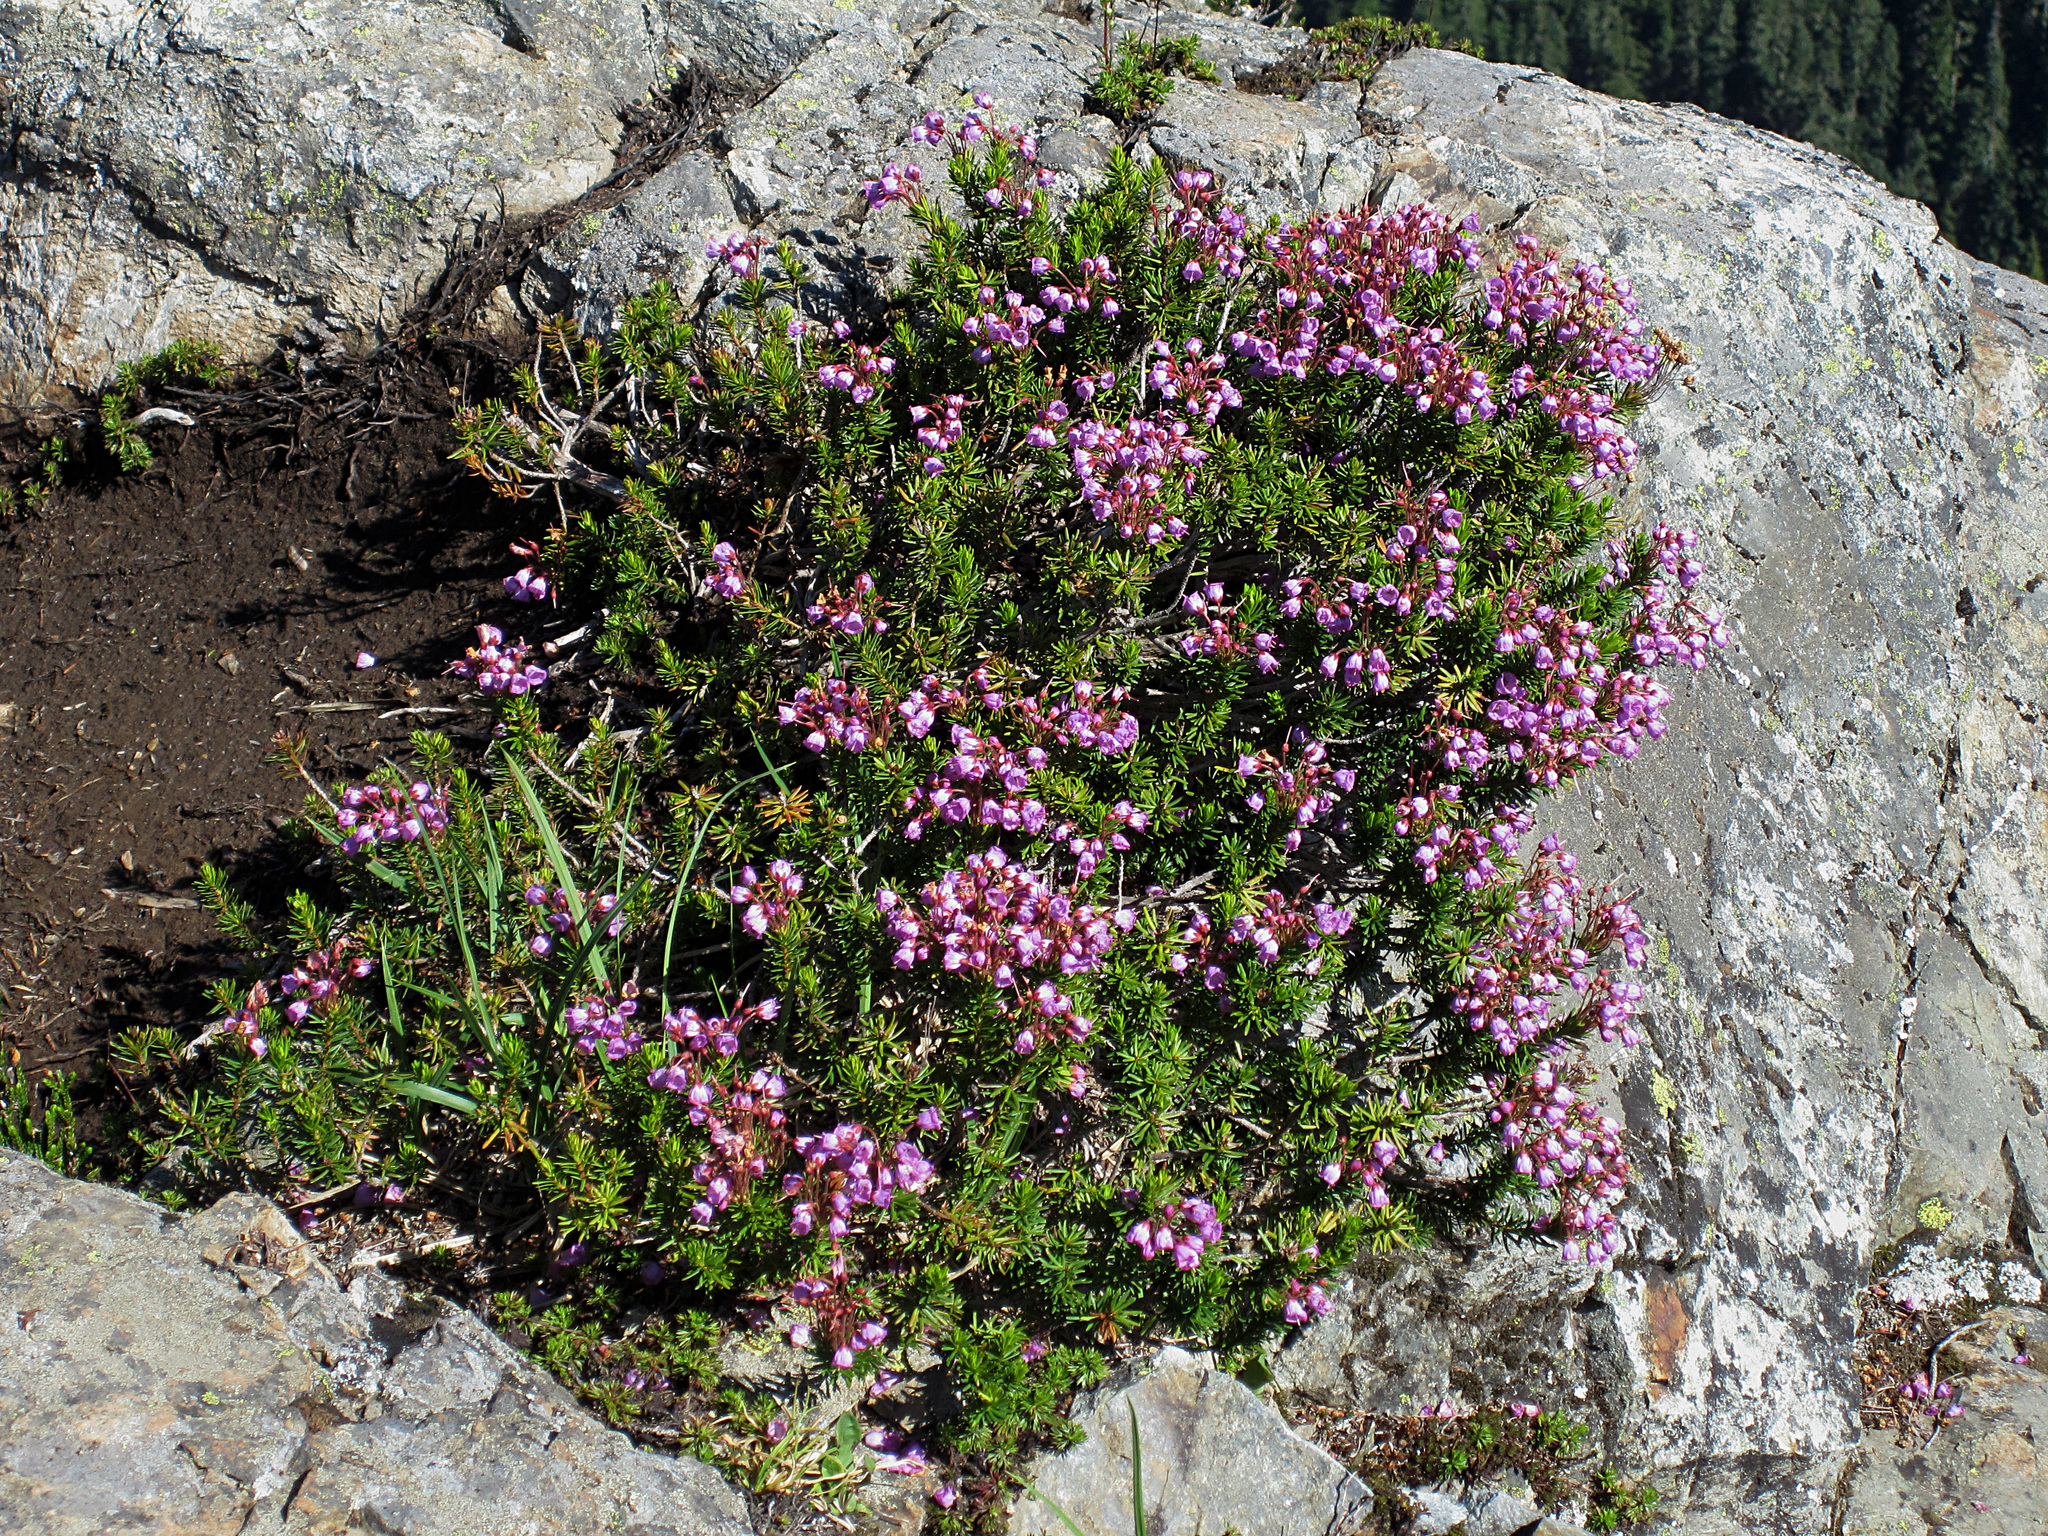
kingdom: Plantae
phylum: Tracheophyta
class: Magnoliopsida
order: Ericales
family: Ericaceae
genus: Phyllodoce
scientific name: Phyllodoce empetriformis
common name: Pink mountain heather
